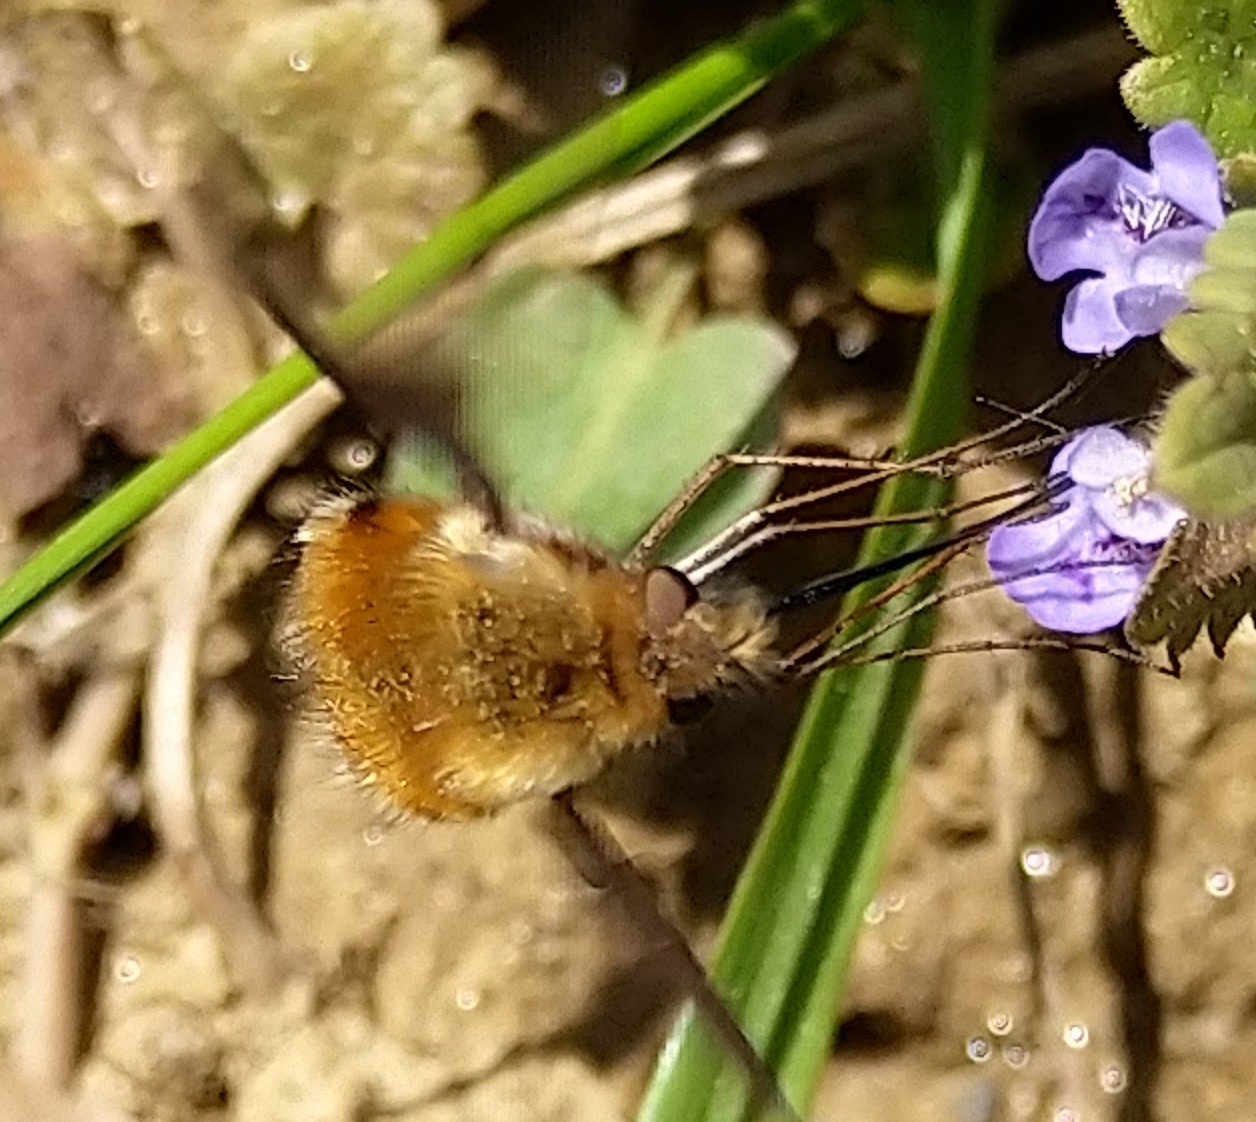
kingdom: Animalia
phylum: Arthropoda
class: Insecta
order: Diptera
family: Bombyliidae
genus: Bombylius
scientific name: Bombylius major
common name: Bee fly
